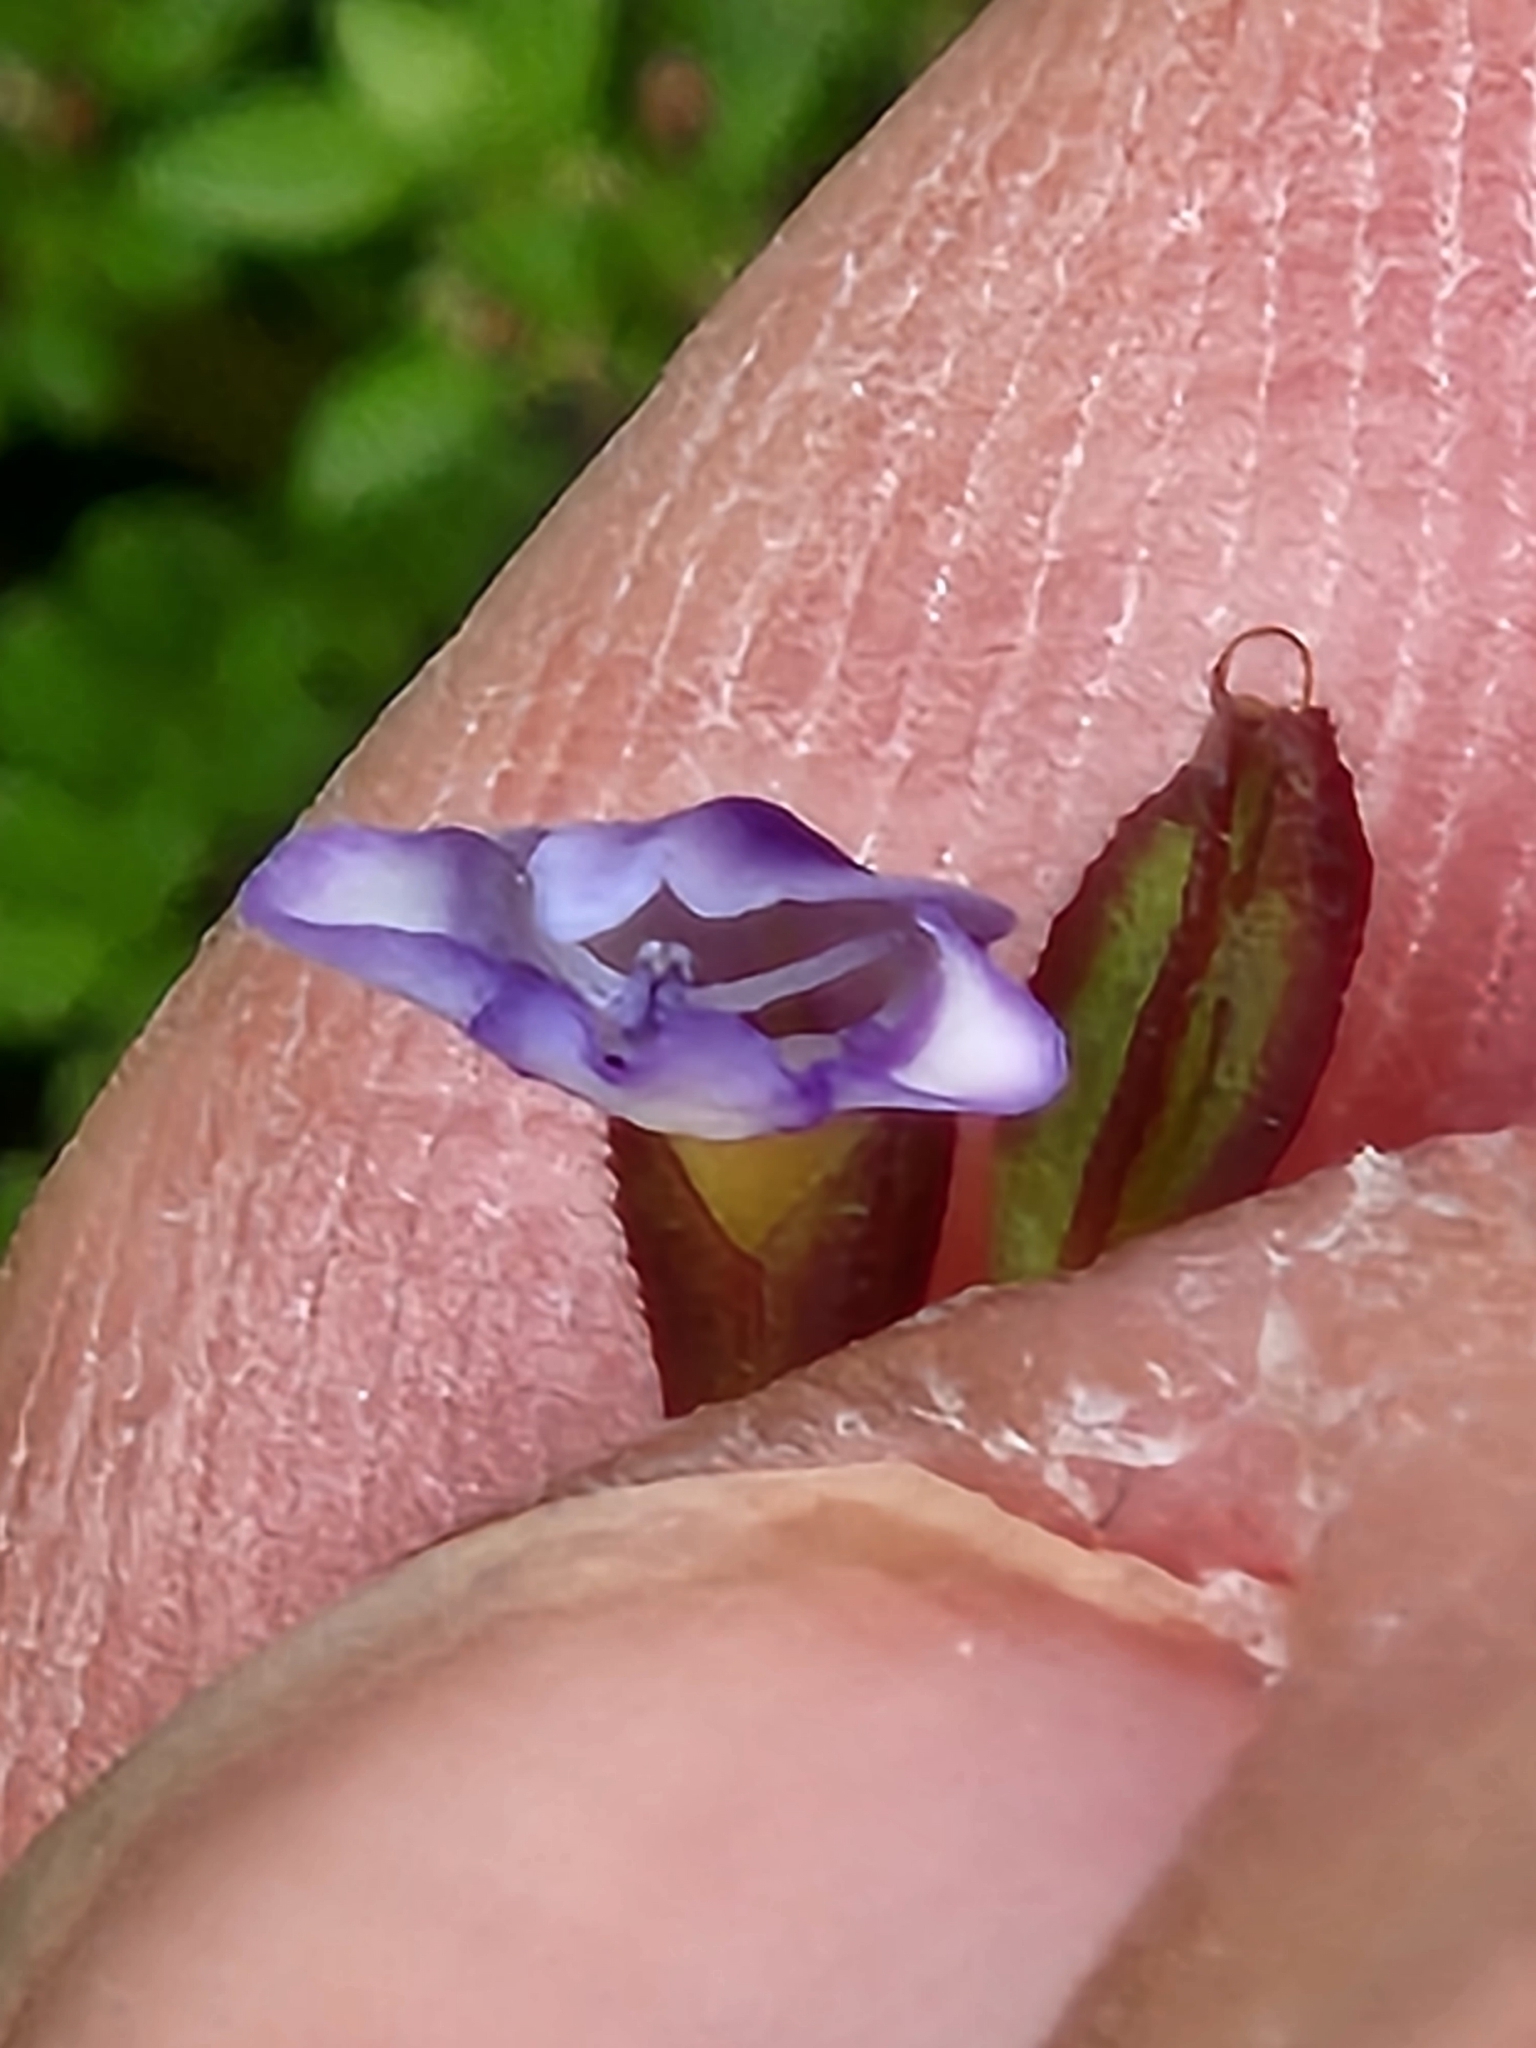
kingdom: Plantae
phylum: Tracheophyta
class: Magnoliopsida
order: Lamiales
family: Linderniaceae
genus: Torenia
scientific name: Torenia crustacea
